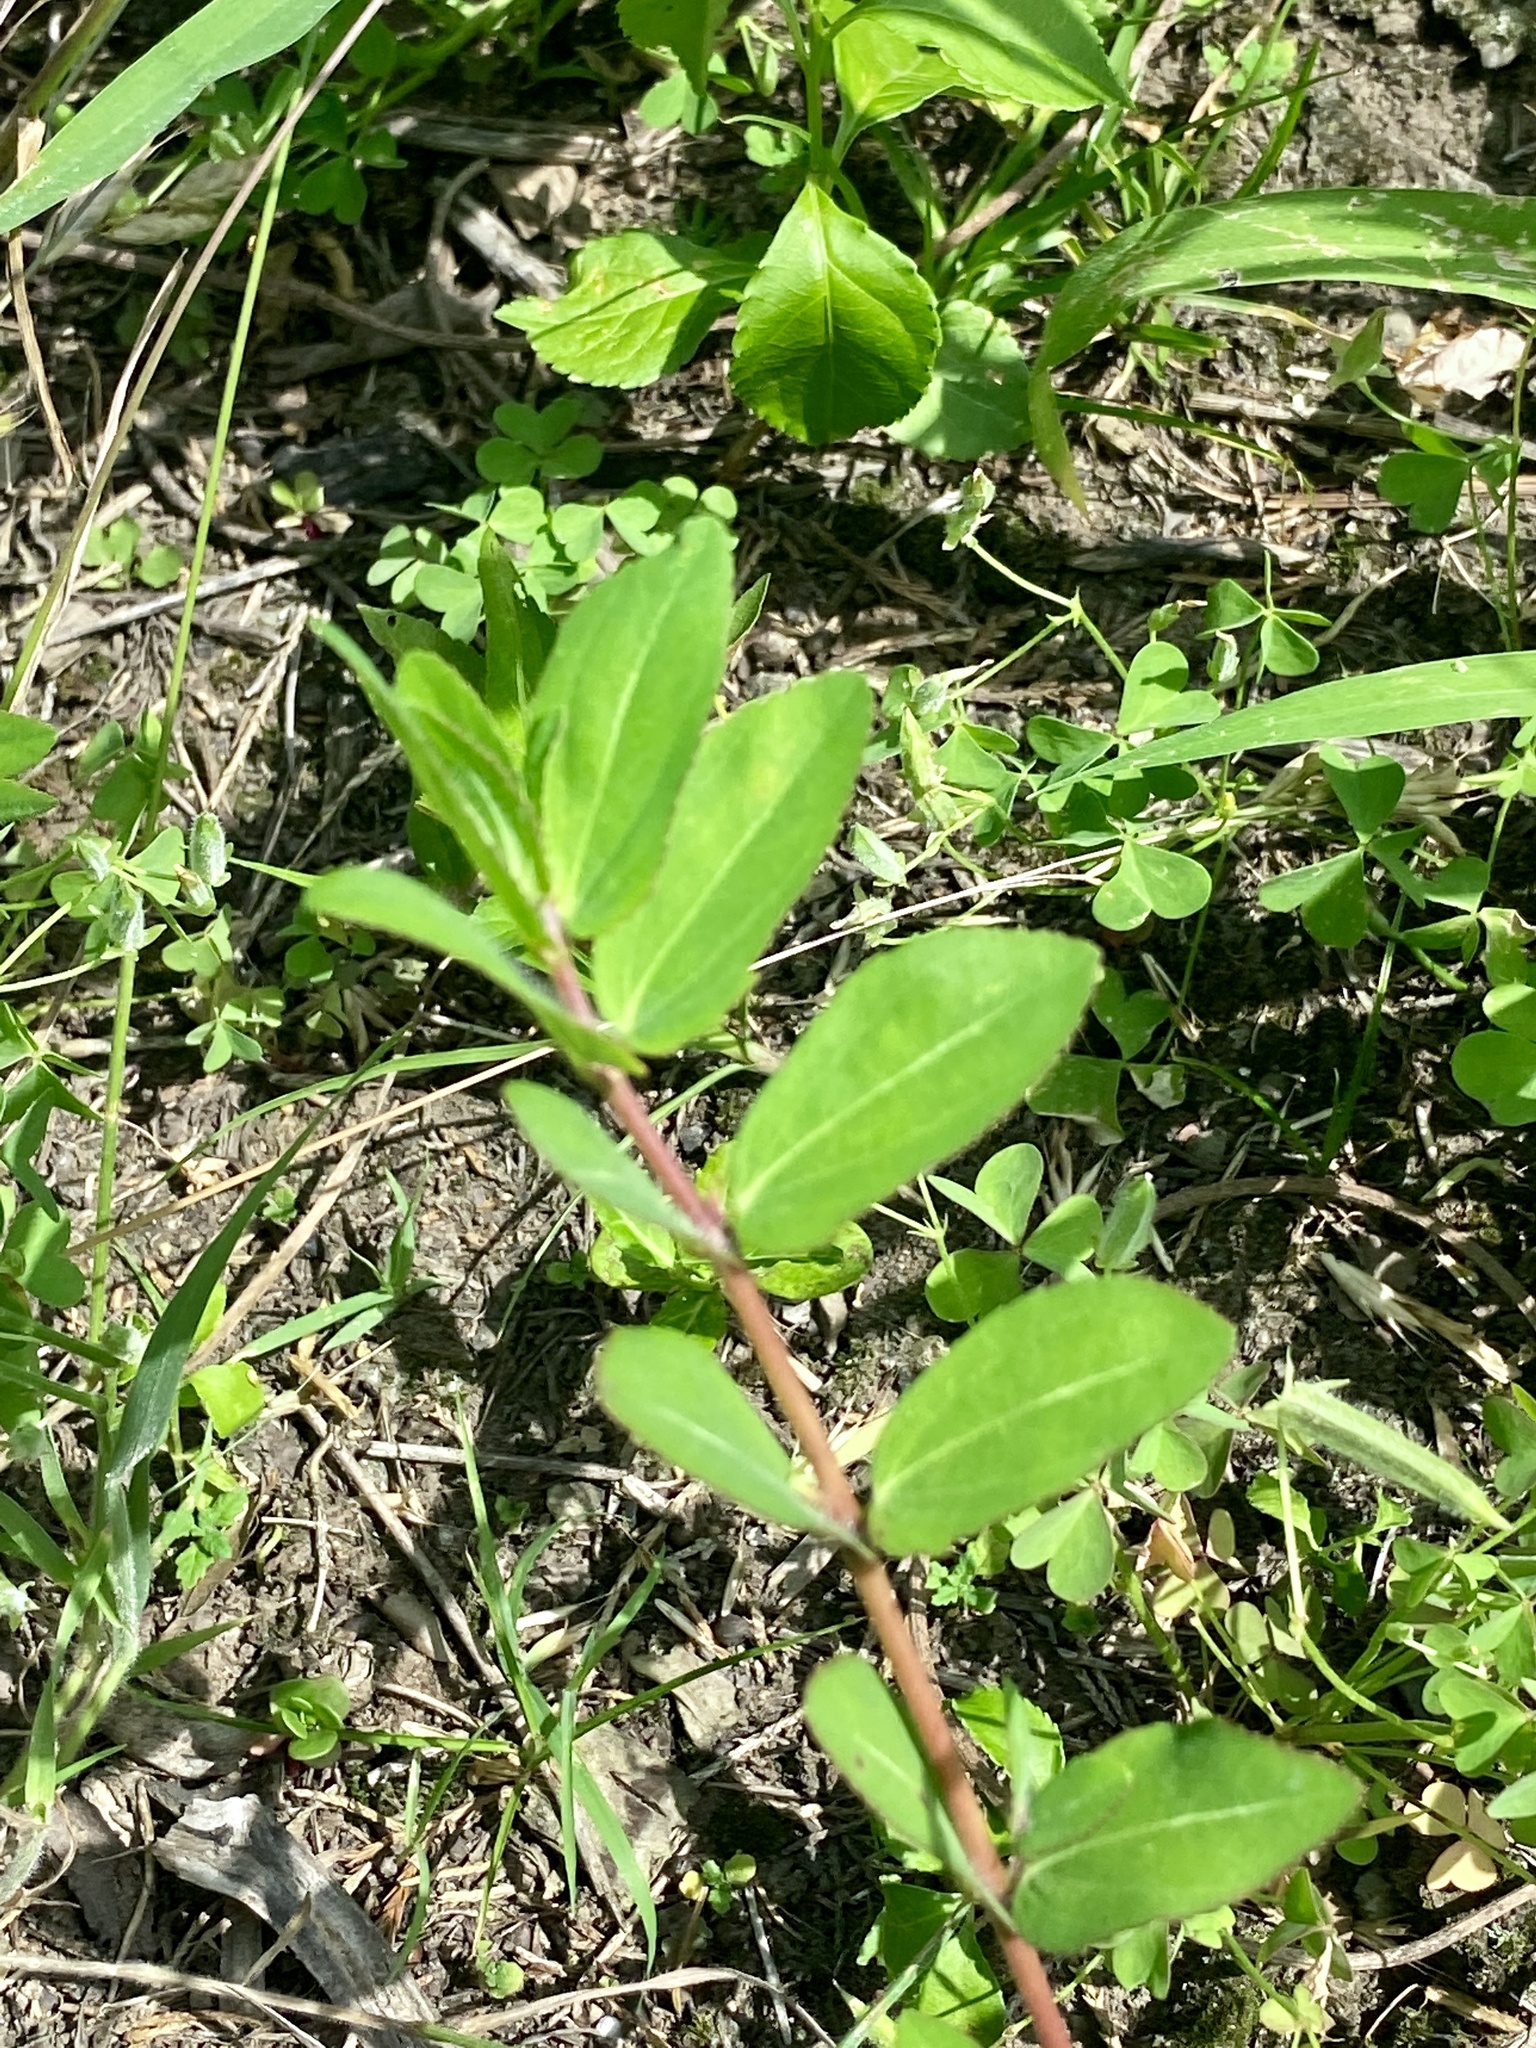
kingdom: Plantae
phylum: Tracheophyta
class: Magnoliopsida
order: Malpighiales
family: Euphorbiaceae
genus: Euphorbia
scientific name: Euphorbia nutans
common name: Eyebane
